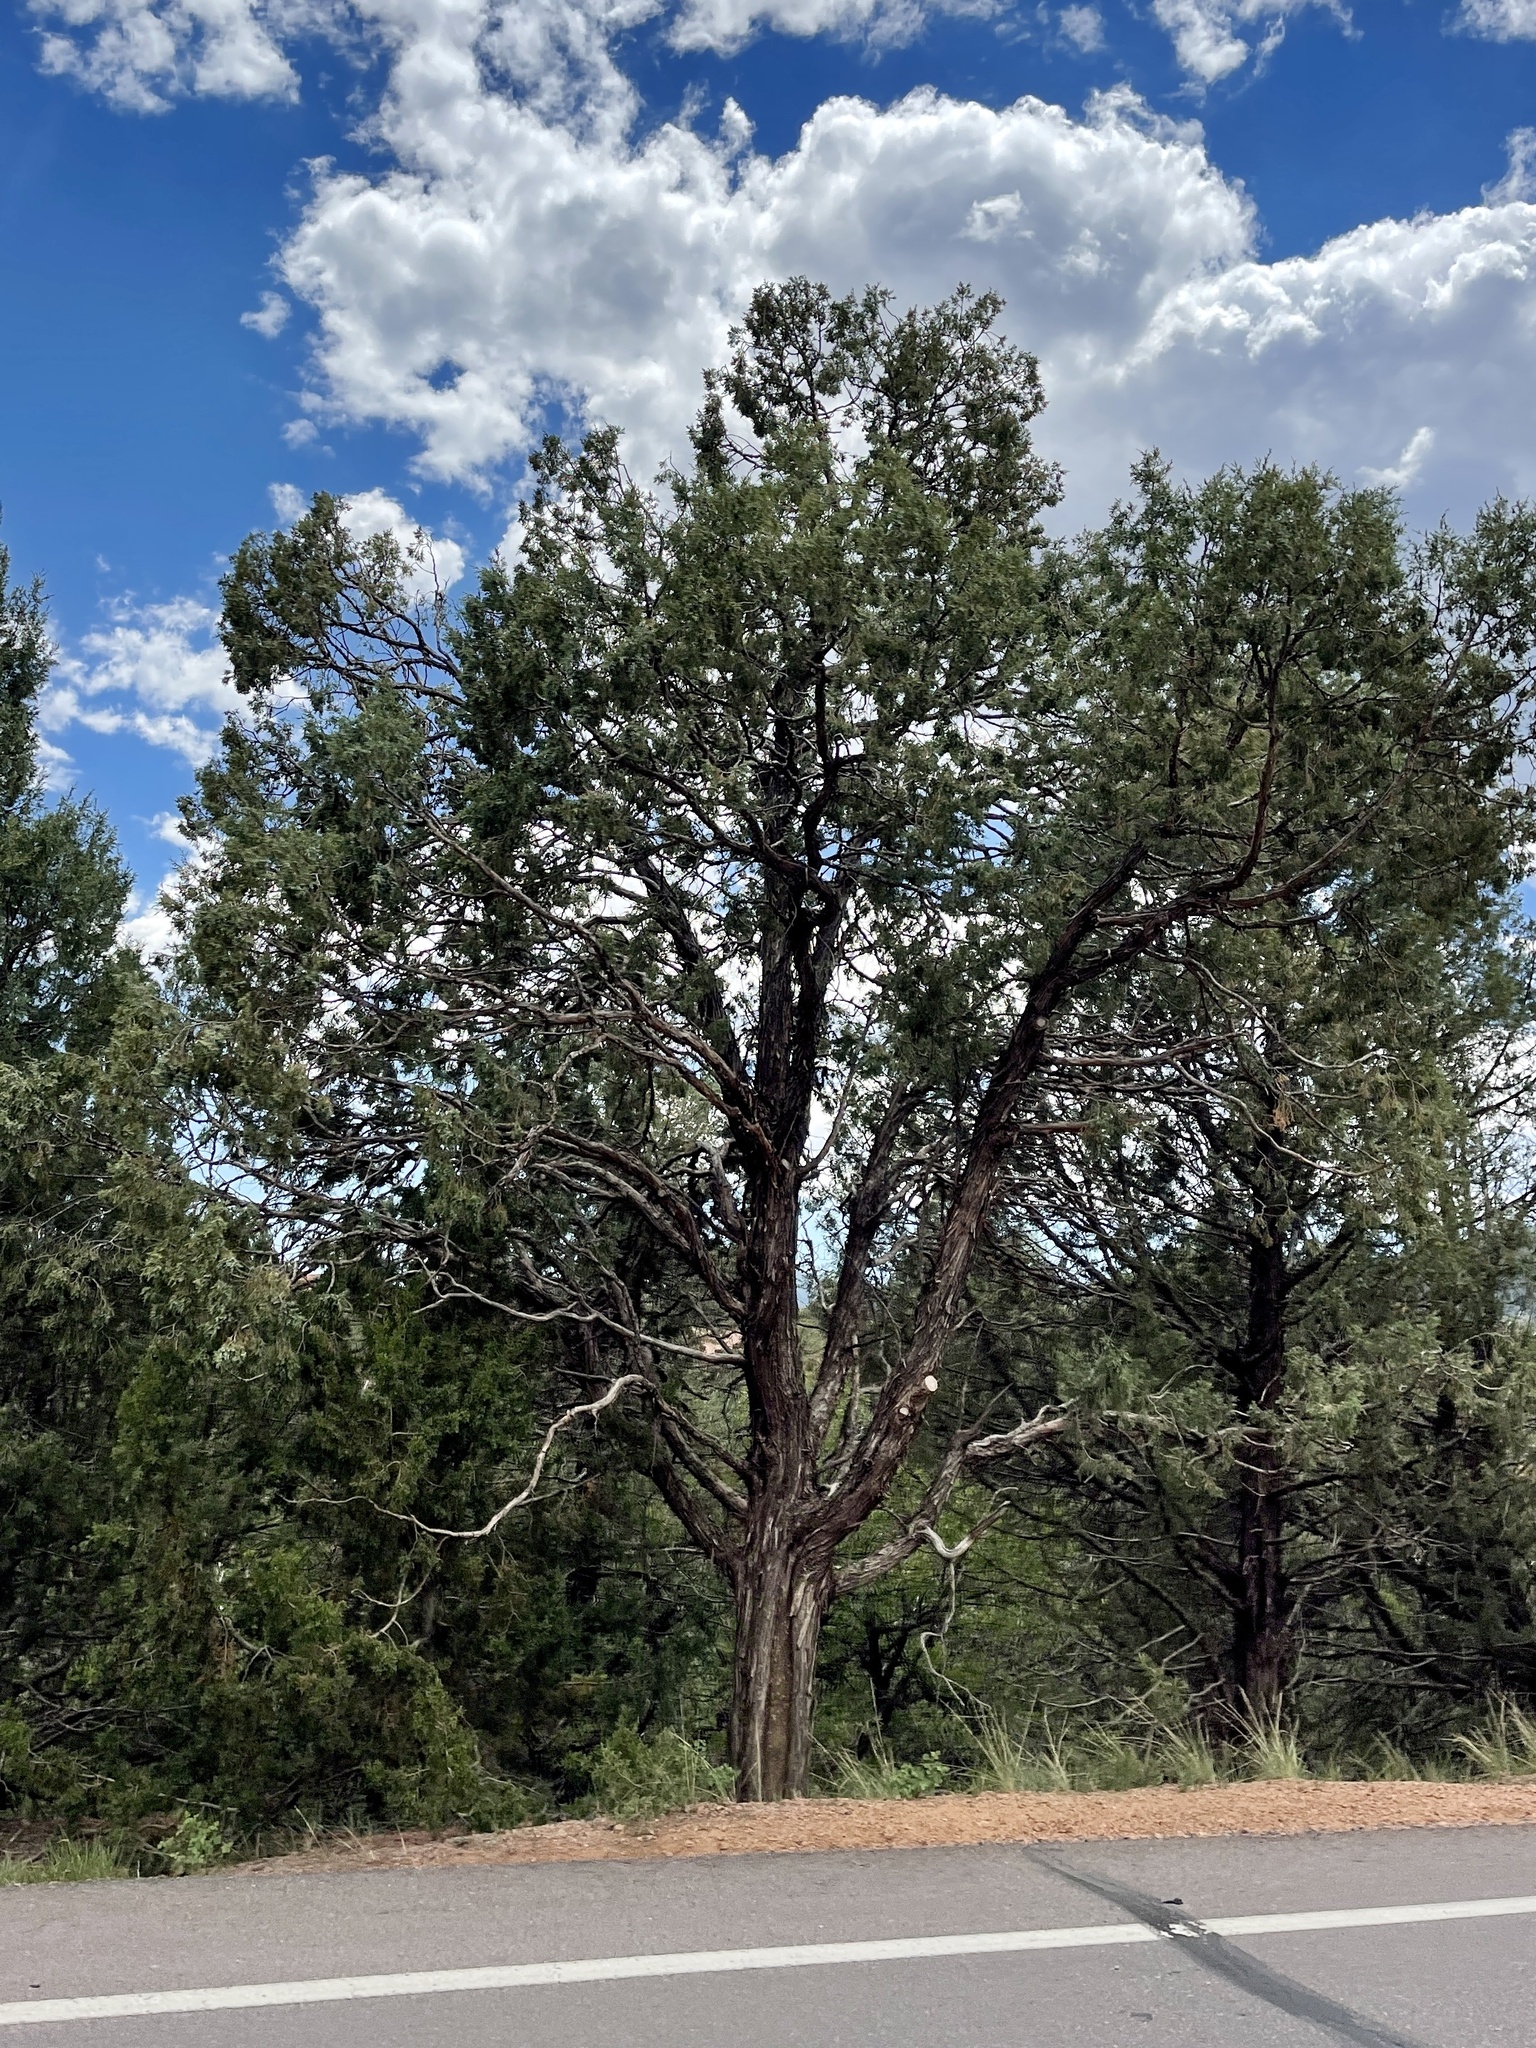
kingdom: Plantae
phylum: Tracheophyta
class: Pinopsida
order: Pinales
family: Cupressaceae
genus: Juniperus
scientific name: Juniperus scopulorum
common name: Rocky mountain juniper
